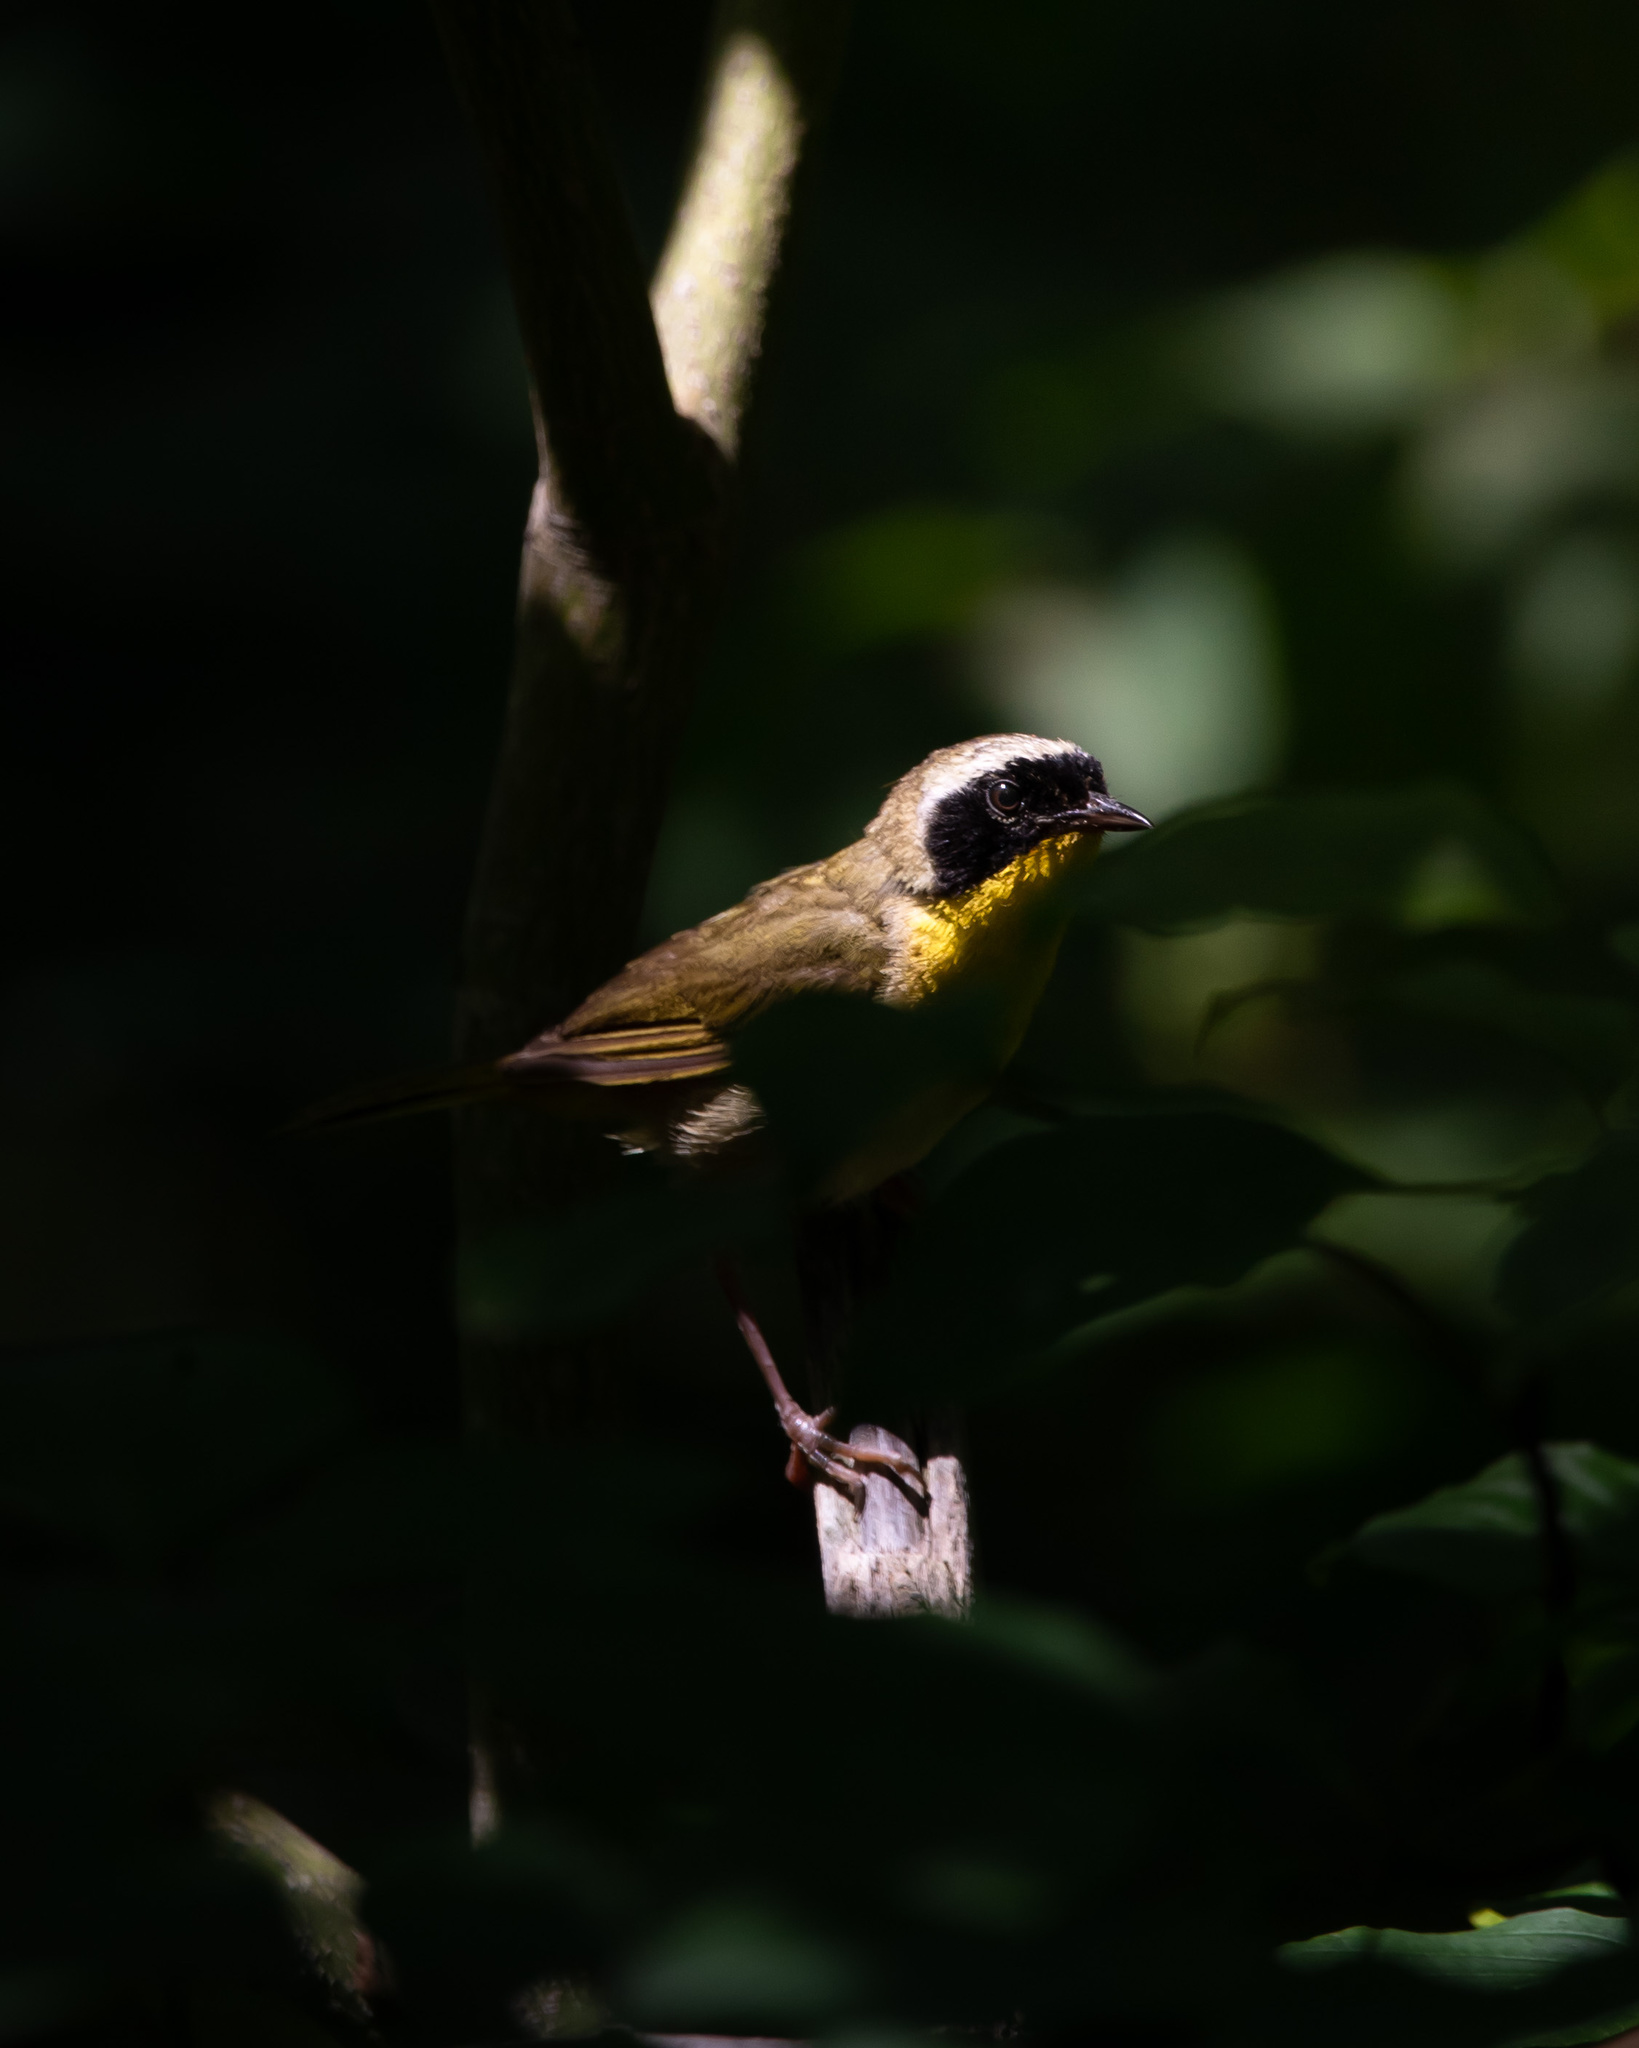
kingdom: Animalia
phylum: Chordata
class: Aves
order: Passeriformes
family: Parulidae
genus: Geothlypis
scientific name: Geothlypis trichas
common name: Common yellowthroat
